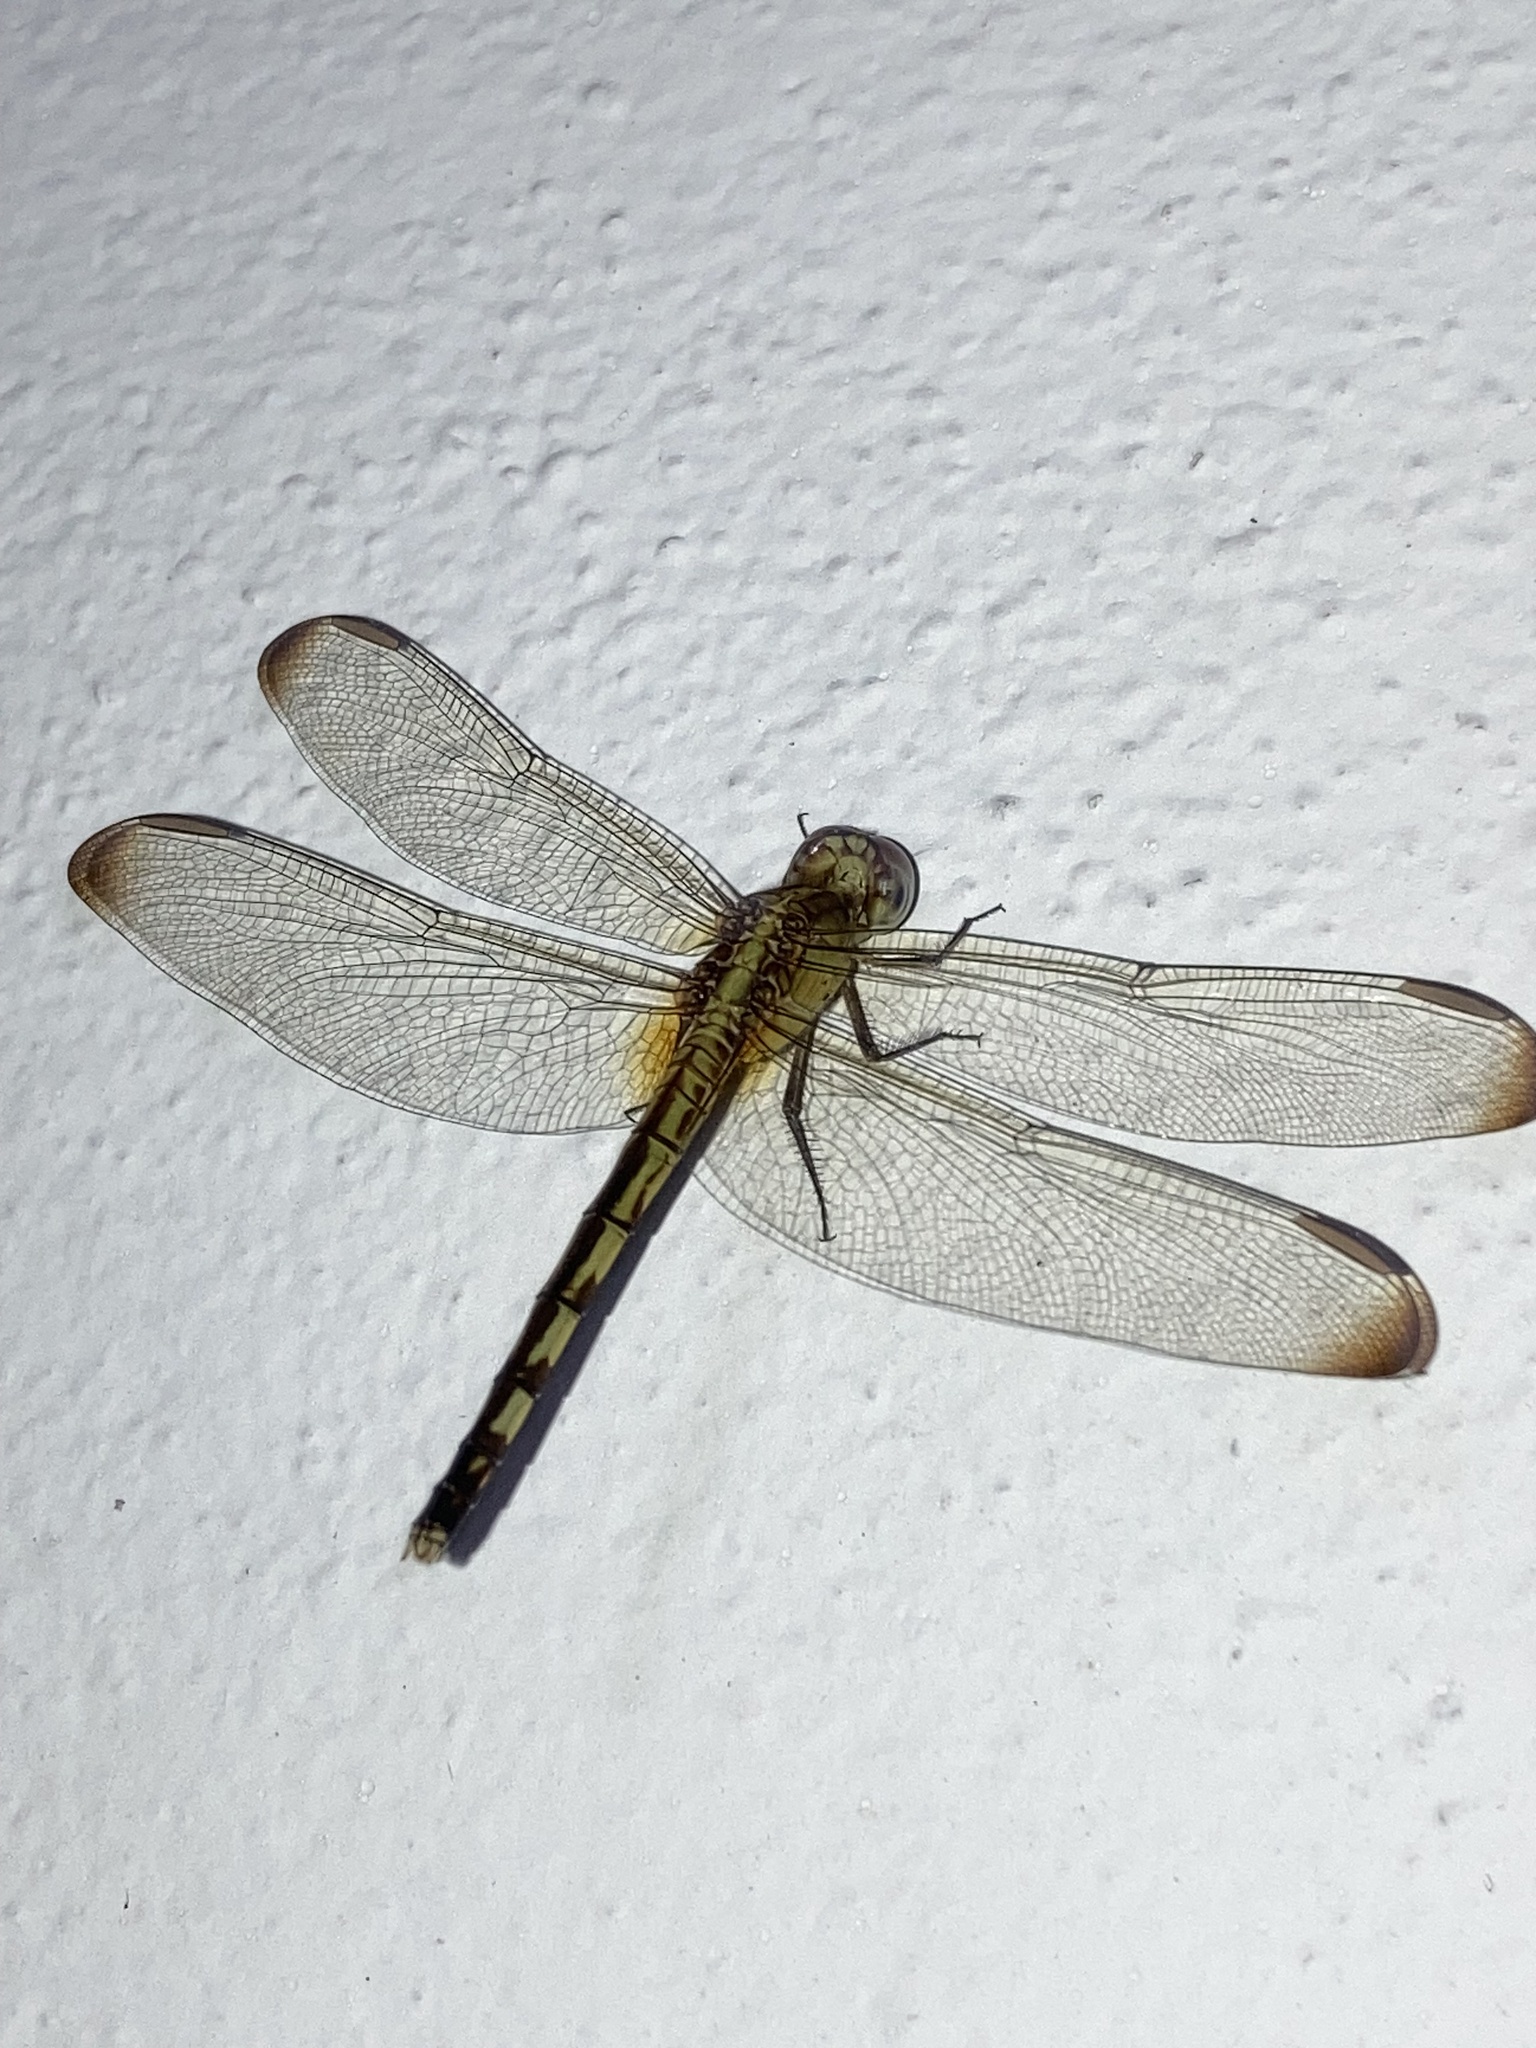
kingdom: Animalia
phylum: Arthropoda
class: Insecta
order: Odonata
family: Libellulidae
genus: Erythrodiplax
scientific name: Erythrodiplax umbrata
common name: Band-winged dragonlet
